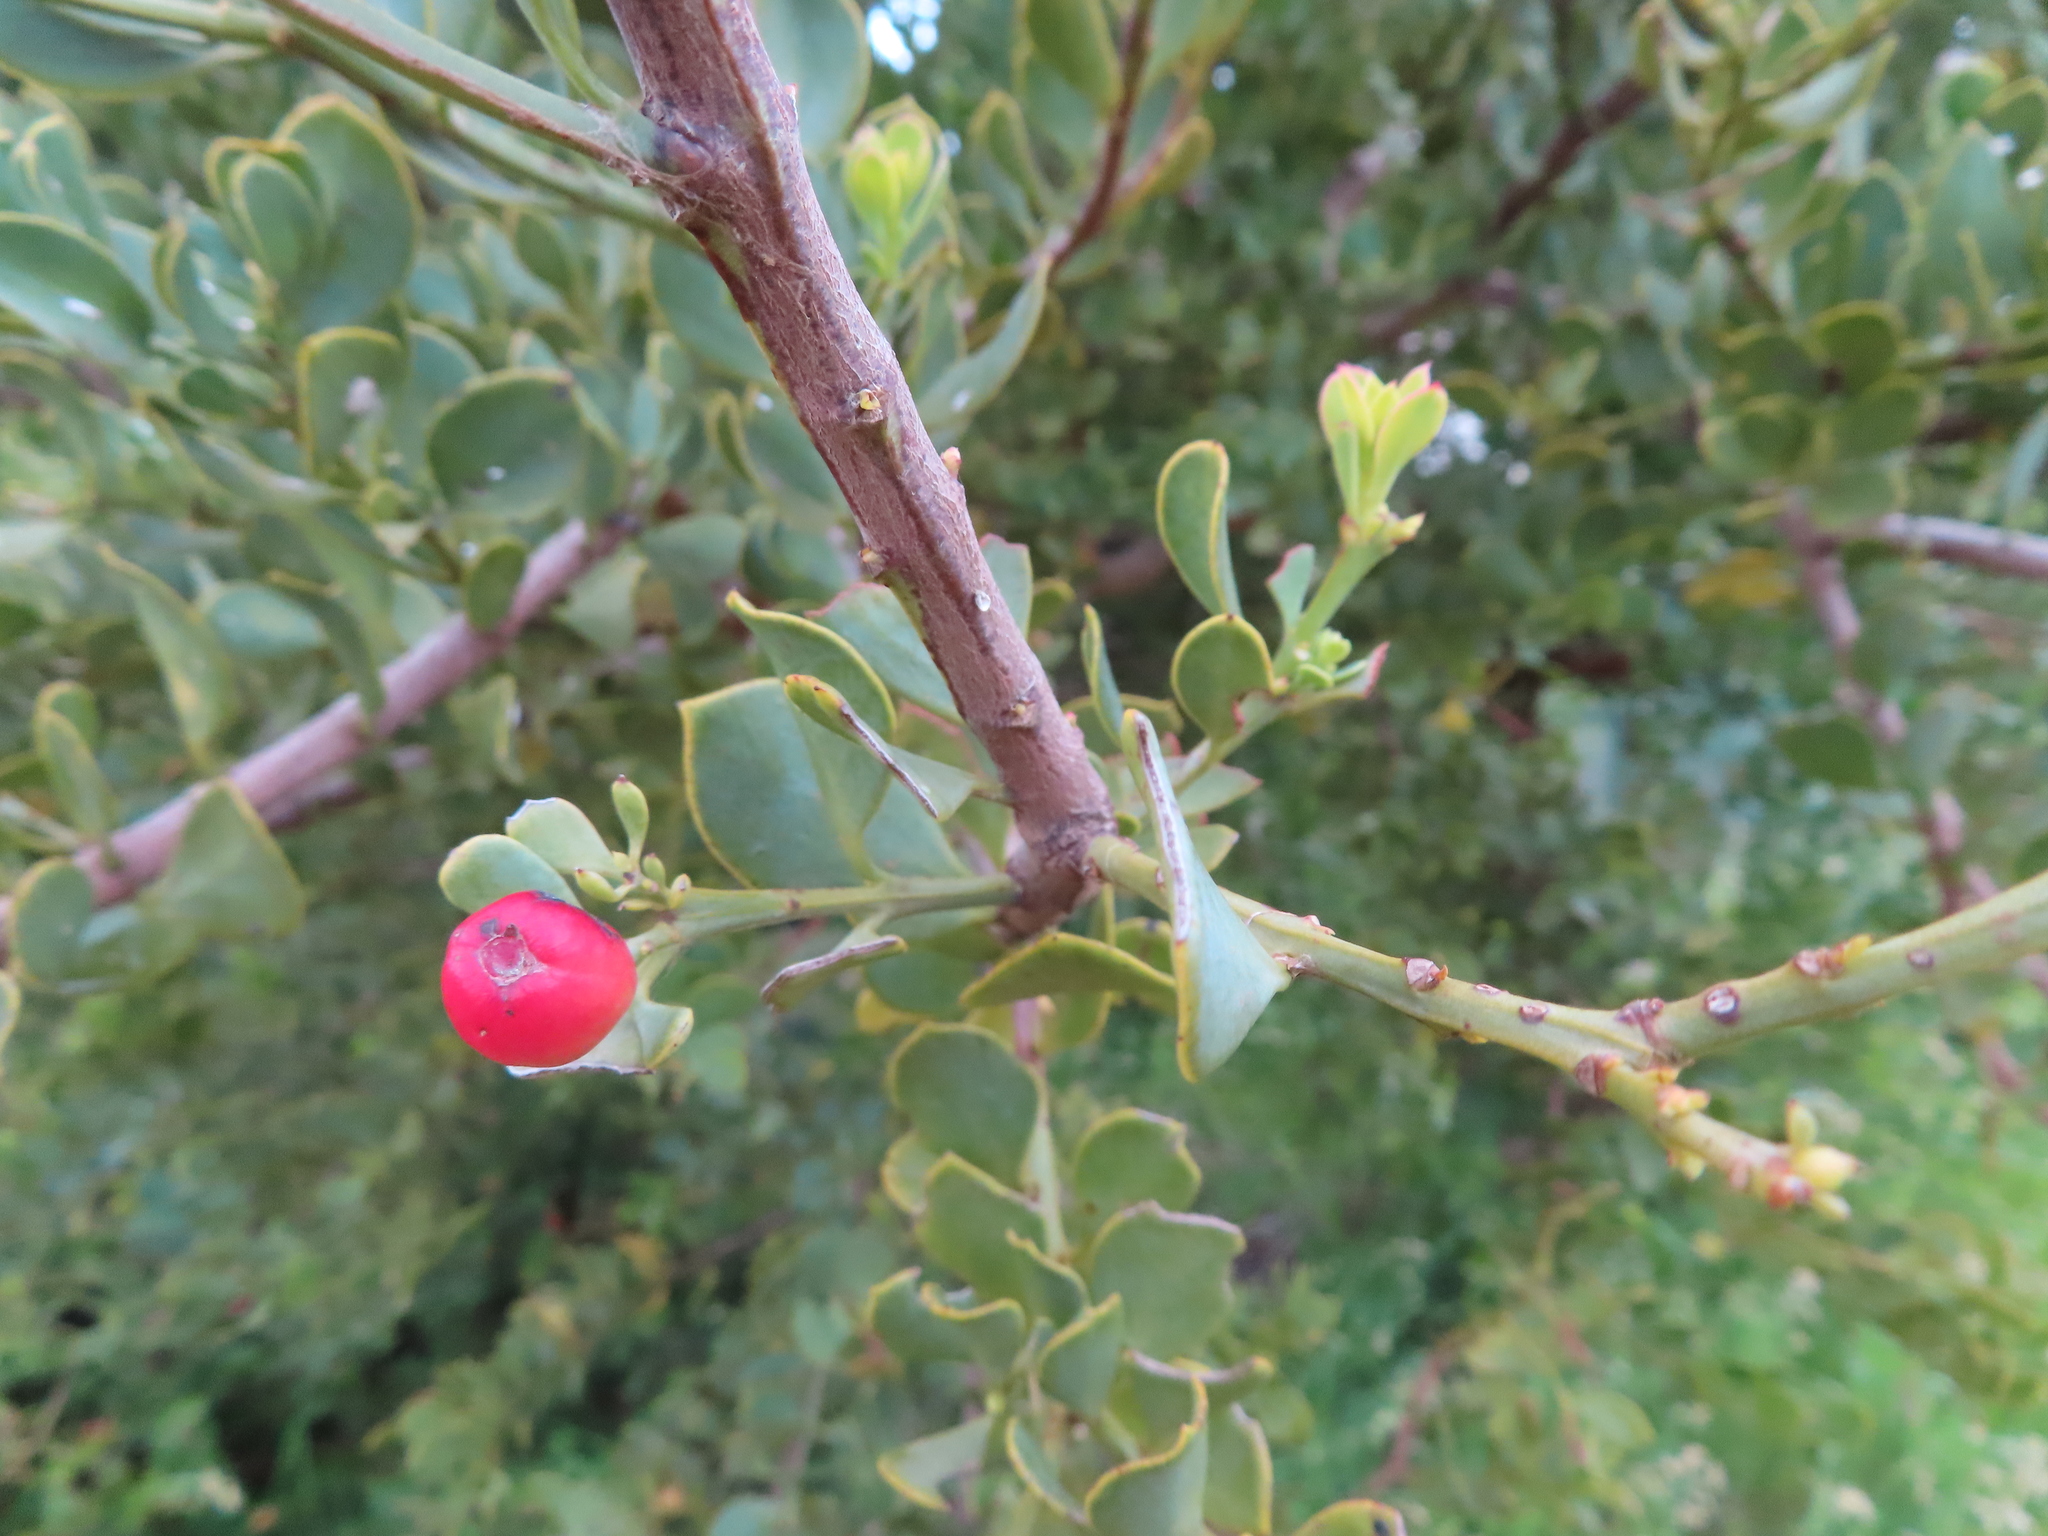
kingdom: Plantae
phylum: Tracheophyta
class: Magnoliopsida
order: Santalales
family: Santalaceae
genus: Osyris
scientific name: Osyris compressa
